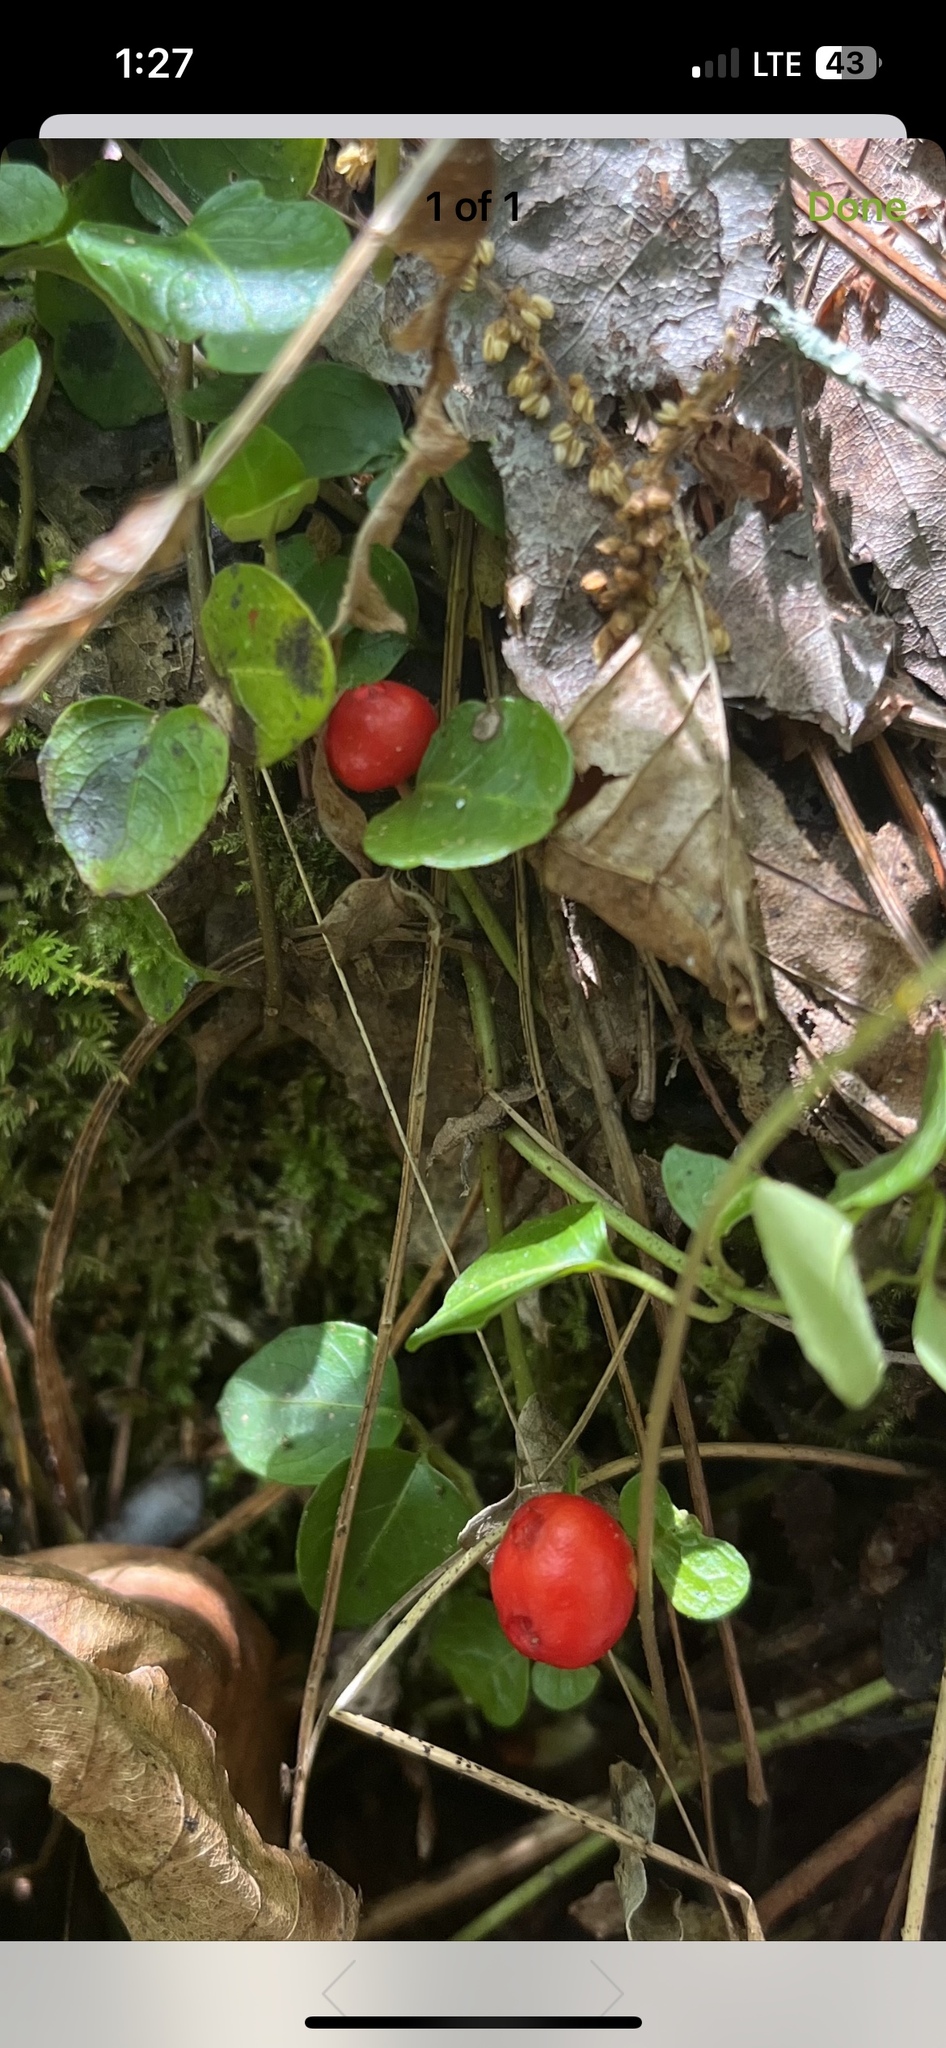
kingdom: Plantae
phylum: Tracheophyta
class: Magnoliopsida
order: Gentianales
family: Rubiaceae
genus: Mitchella
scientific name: Mitchella repens
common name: Partridge-berry
